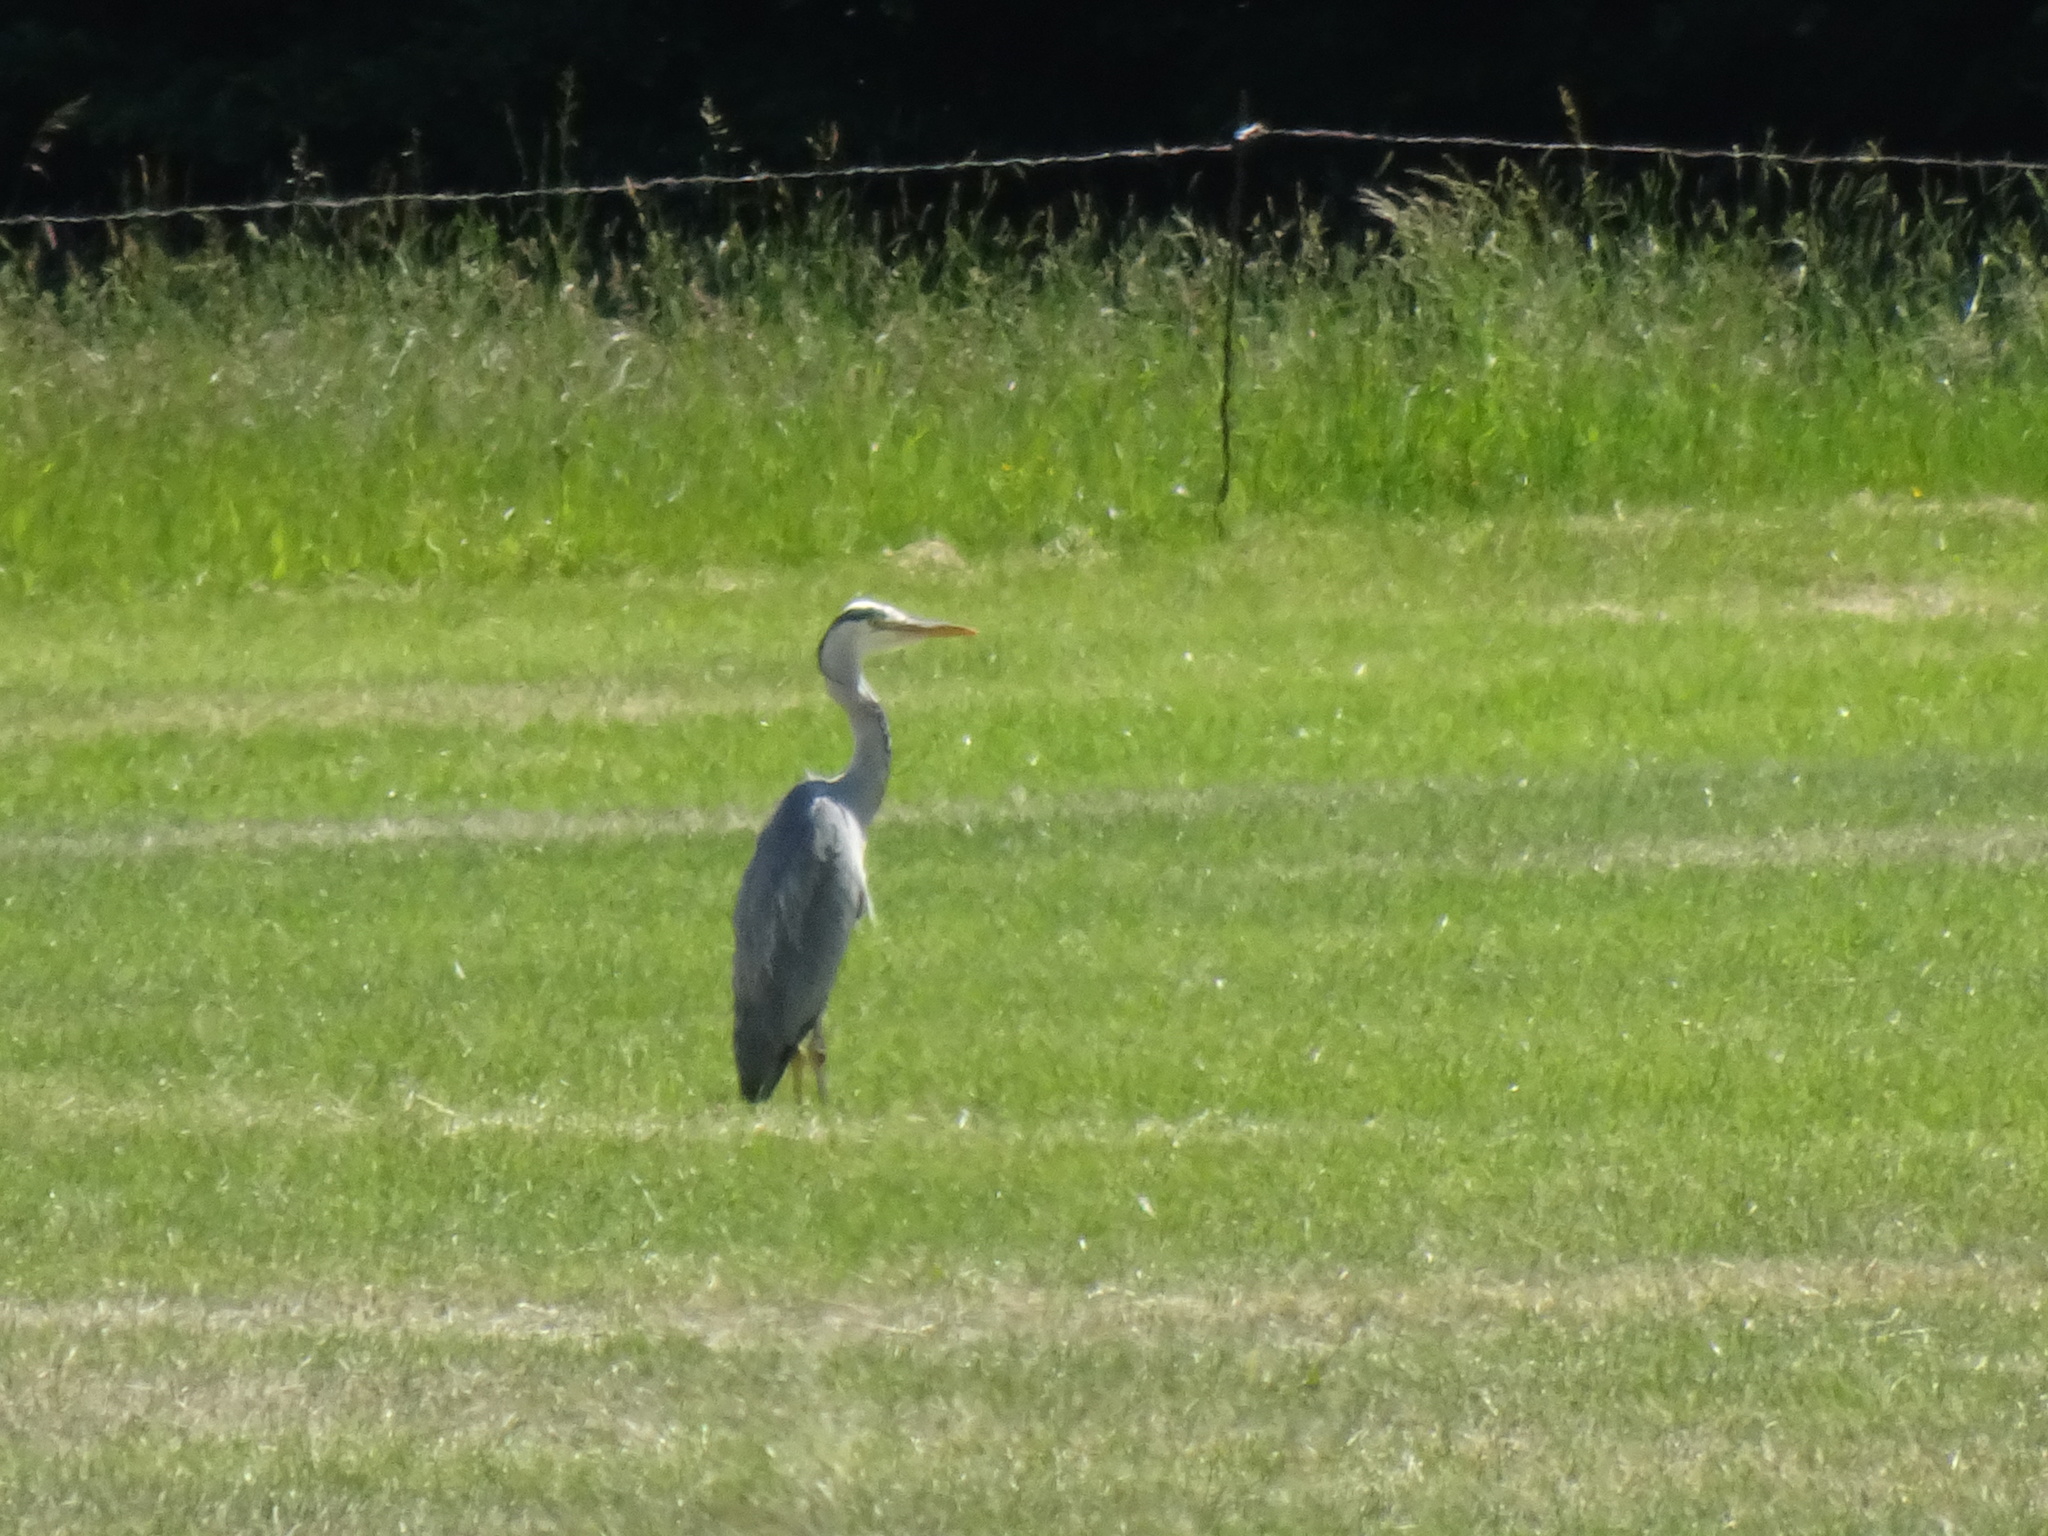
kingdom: Animalia
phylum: Chordata
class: Aves
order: Pelecaniformes
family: Ardeidae
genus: Ardea
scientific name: Ardea cinerea
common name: Grey heron
